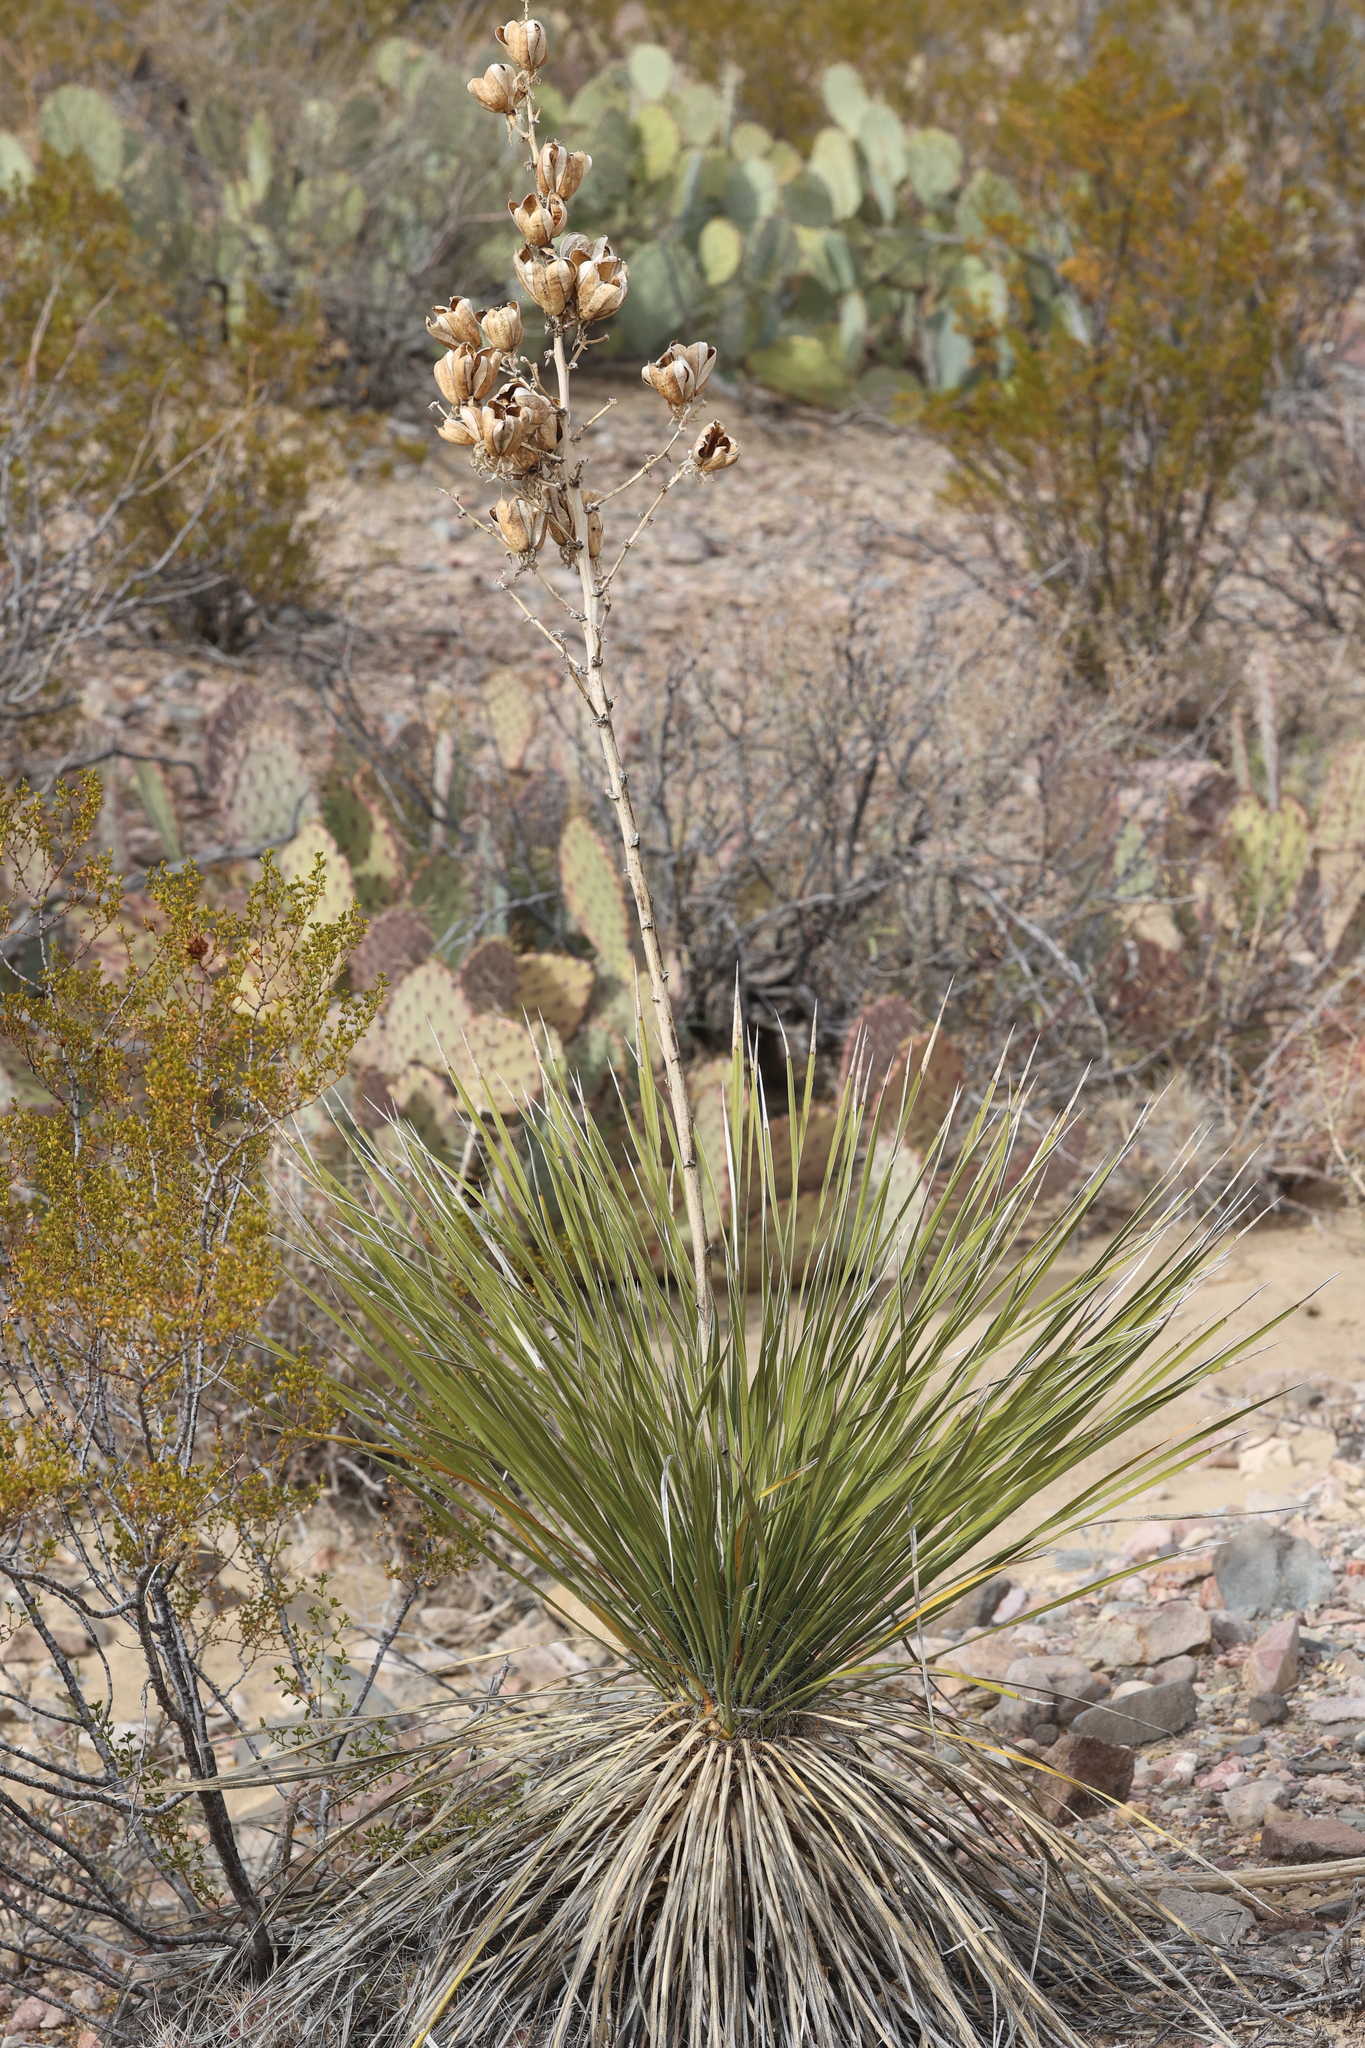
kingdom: Plantae
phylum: Tracheophyta
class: Liliopsida
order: Asparagales
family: Asparagaceae
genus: Yucca
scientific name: Yucca elata
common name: Palmella
